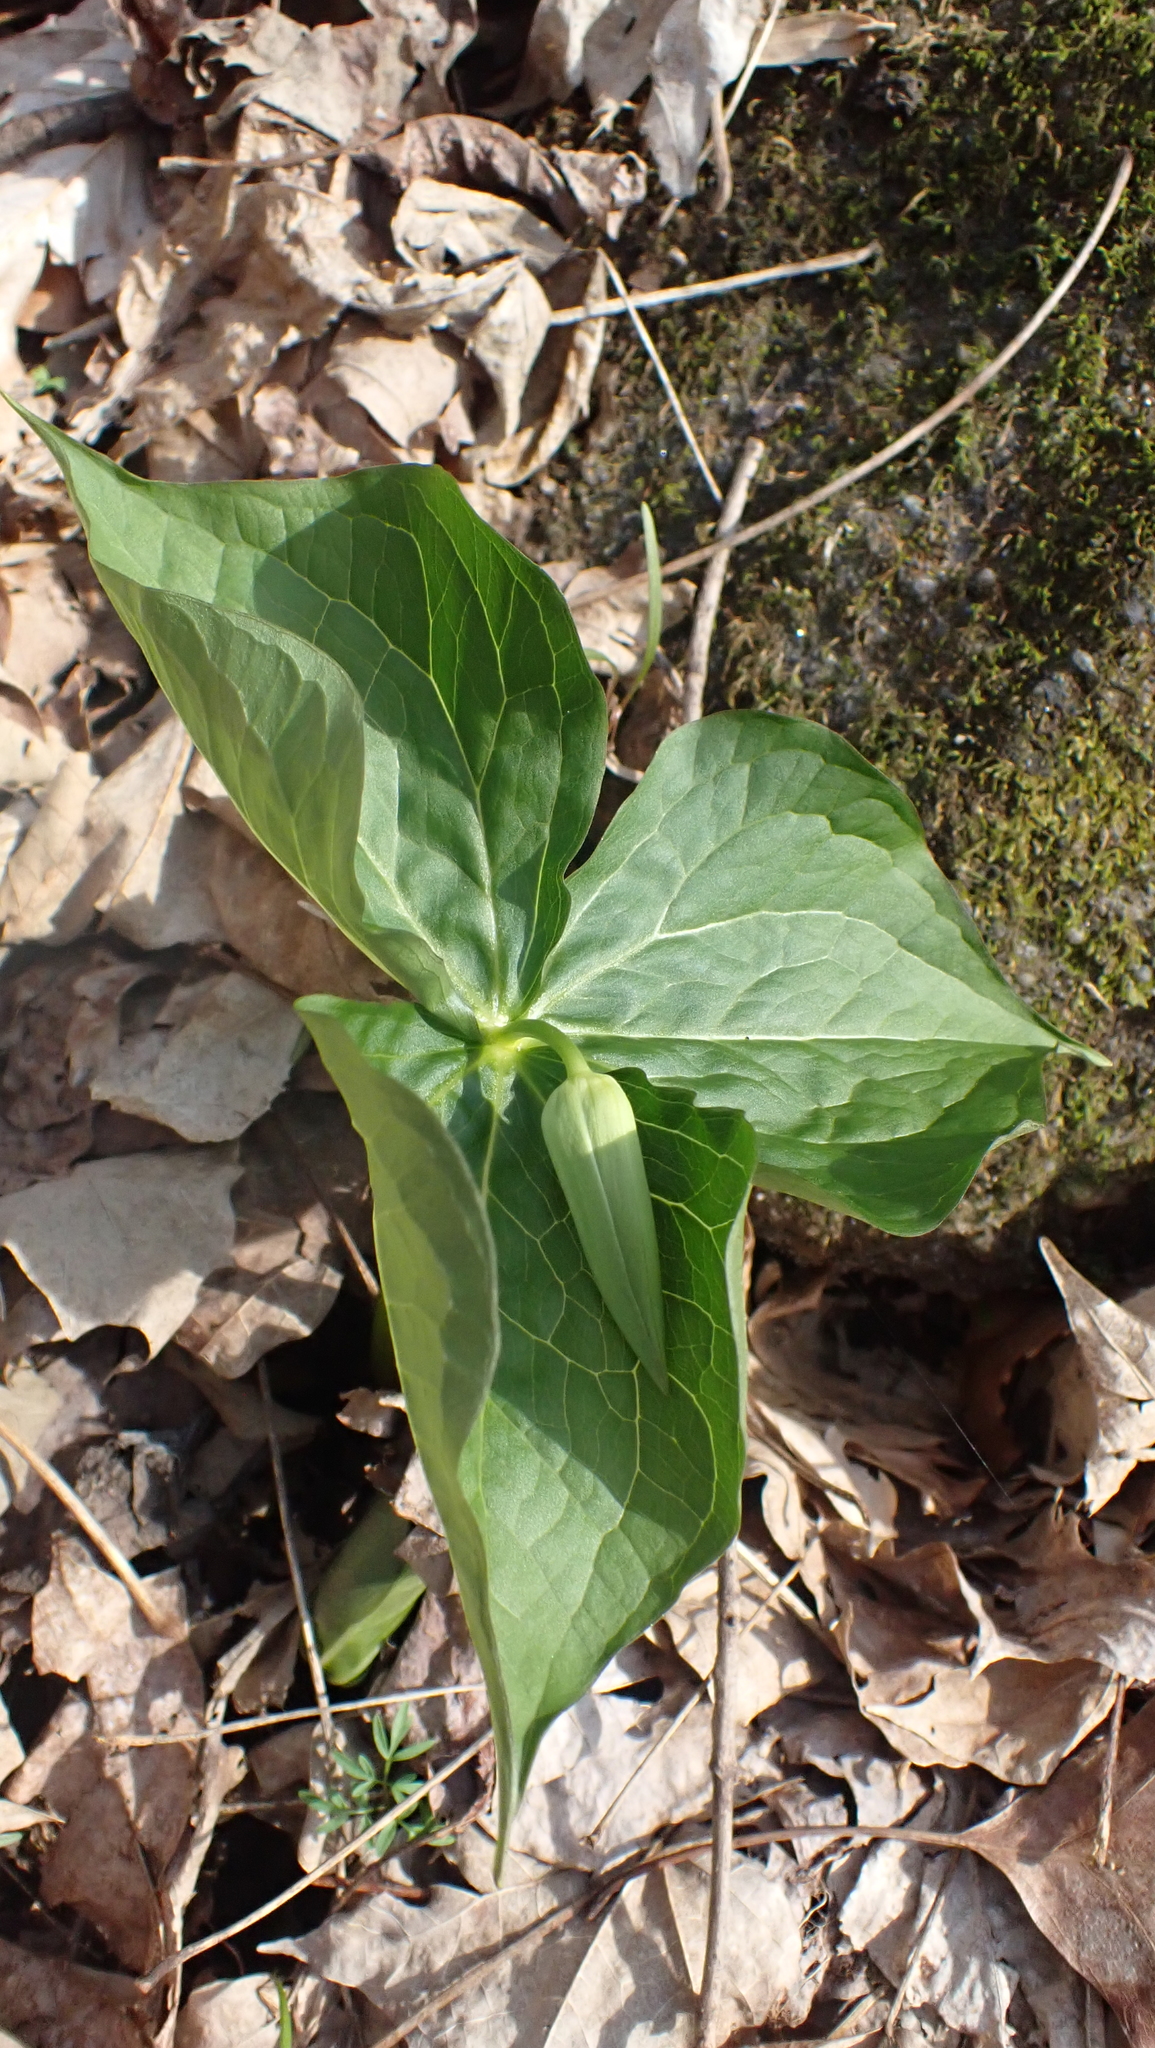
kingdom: Plantae
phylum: Tracheophyta
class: Liliopsida
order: Liliales
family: Melanthiaceae
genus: Trillium
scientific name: Trillium erectum
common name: Purple trillium
